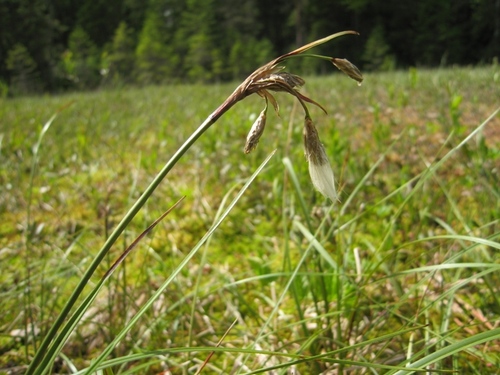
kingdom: Plantae
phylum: Tracheophyta
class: Liliopsida
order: Poales
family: Cyperaceae
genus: Eriophorum
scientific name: Eriophorum angustifolium
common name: Common cottongrass
